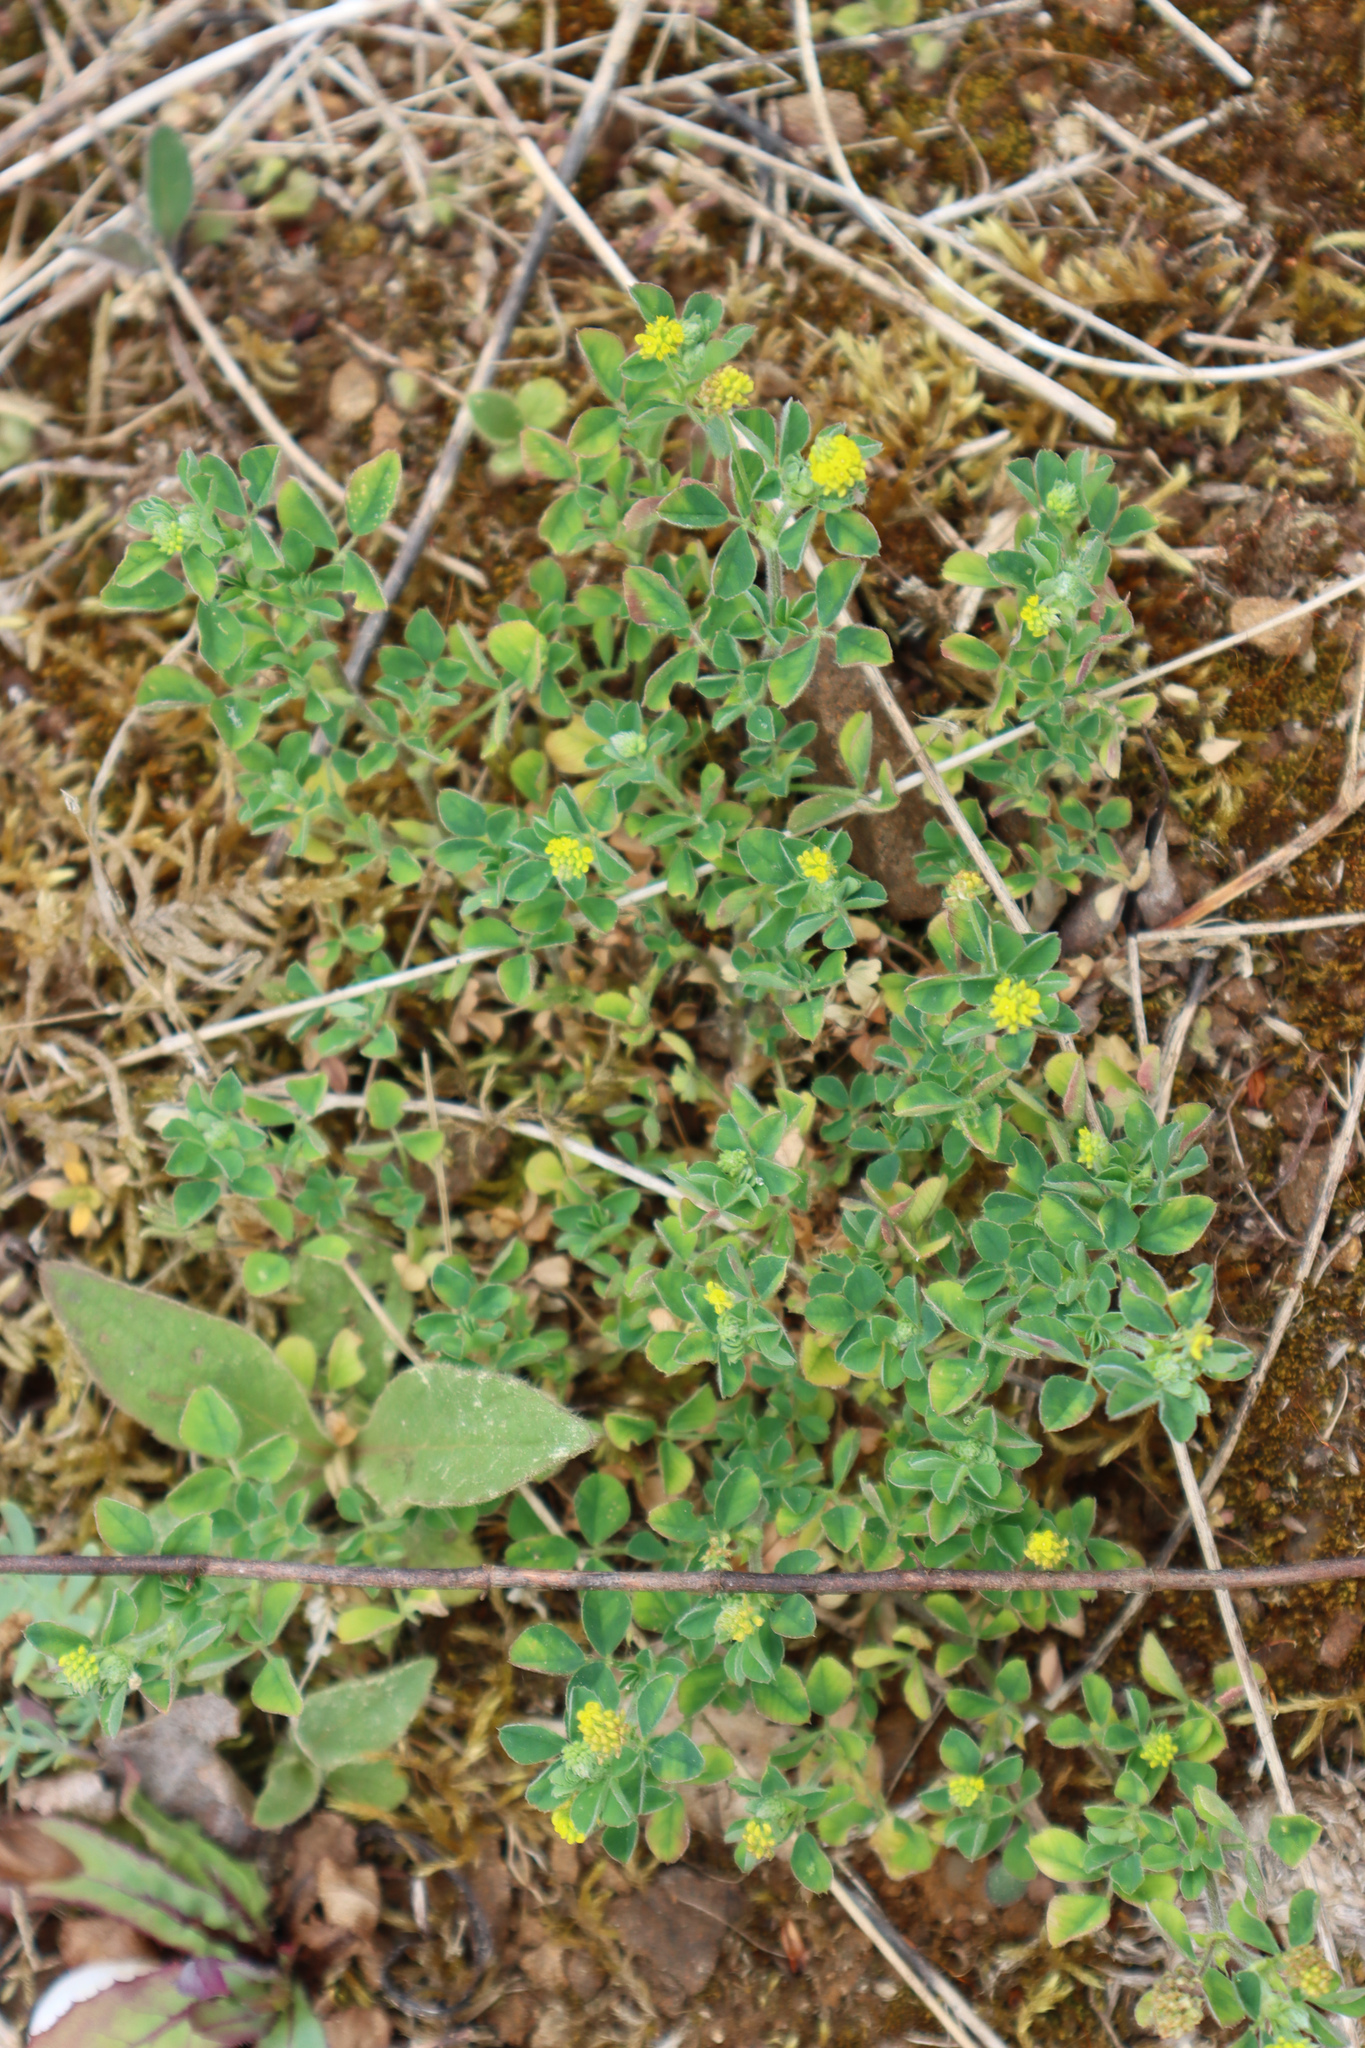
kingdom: Plantae
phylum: Tracheophyta
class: Magnoliopsida
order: Fabales
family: Fabaceae
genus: Medicago
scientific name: Medicago lupulina
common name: Black medick
